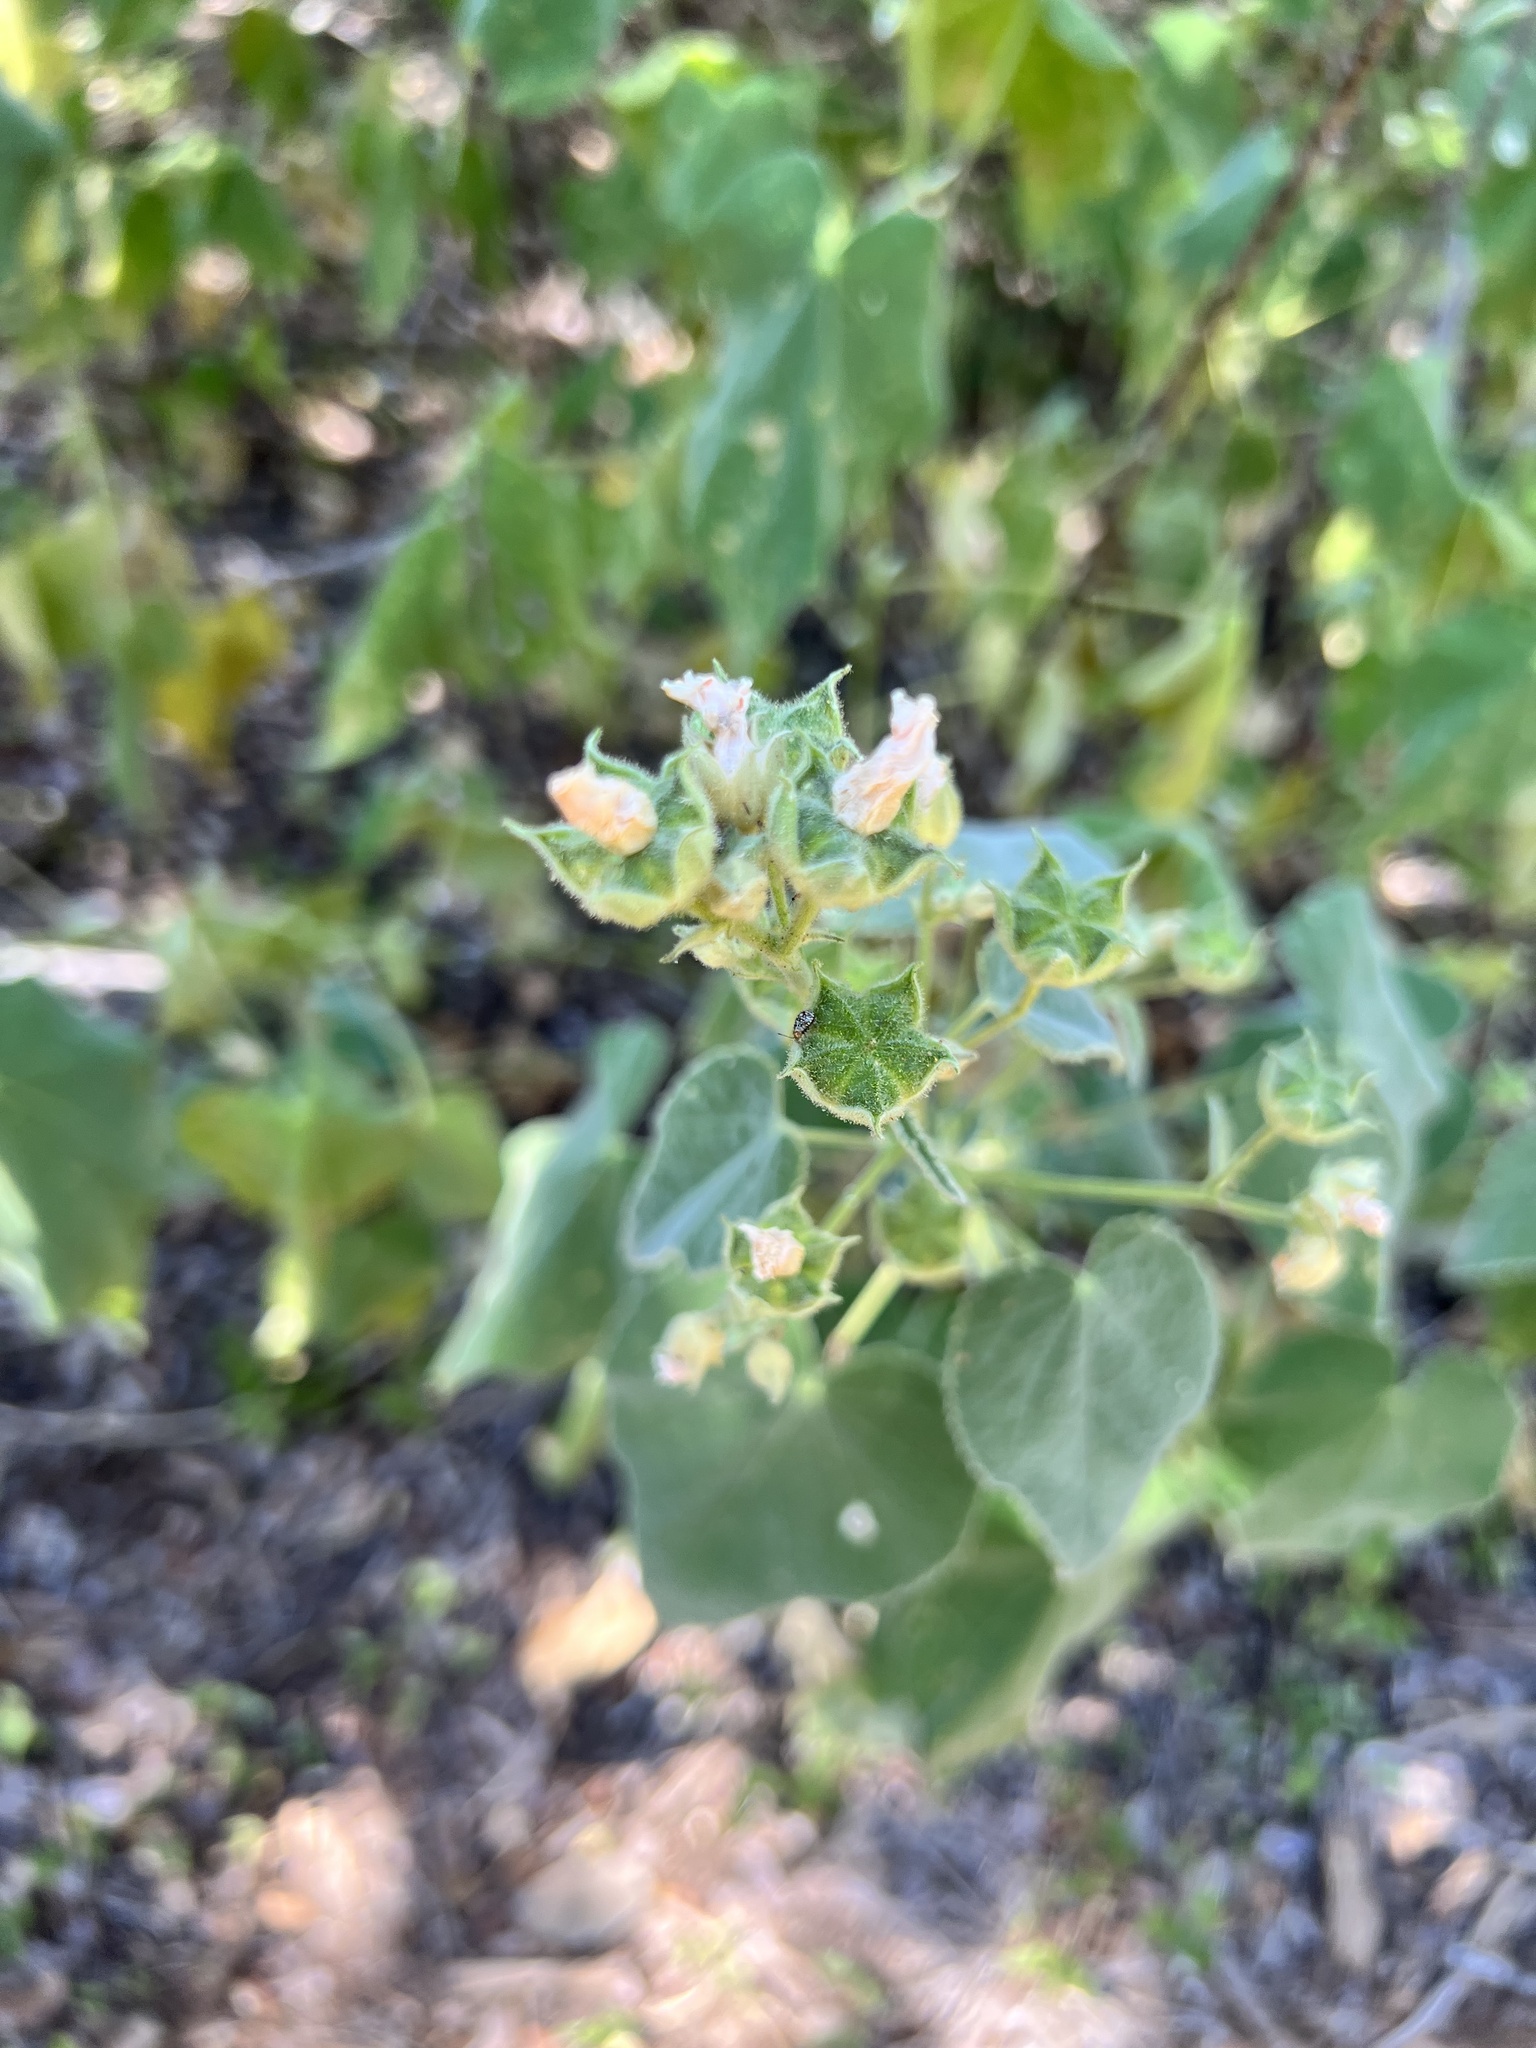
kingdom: Plantae
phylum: Tracheophyta
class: Magnoliopsida
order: Malvales
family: Malvaceae
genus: Allowissadula
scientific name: Allowissadula holosericea
